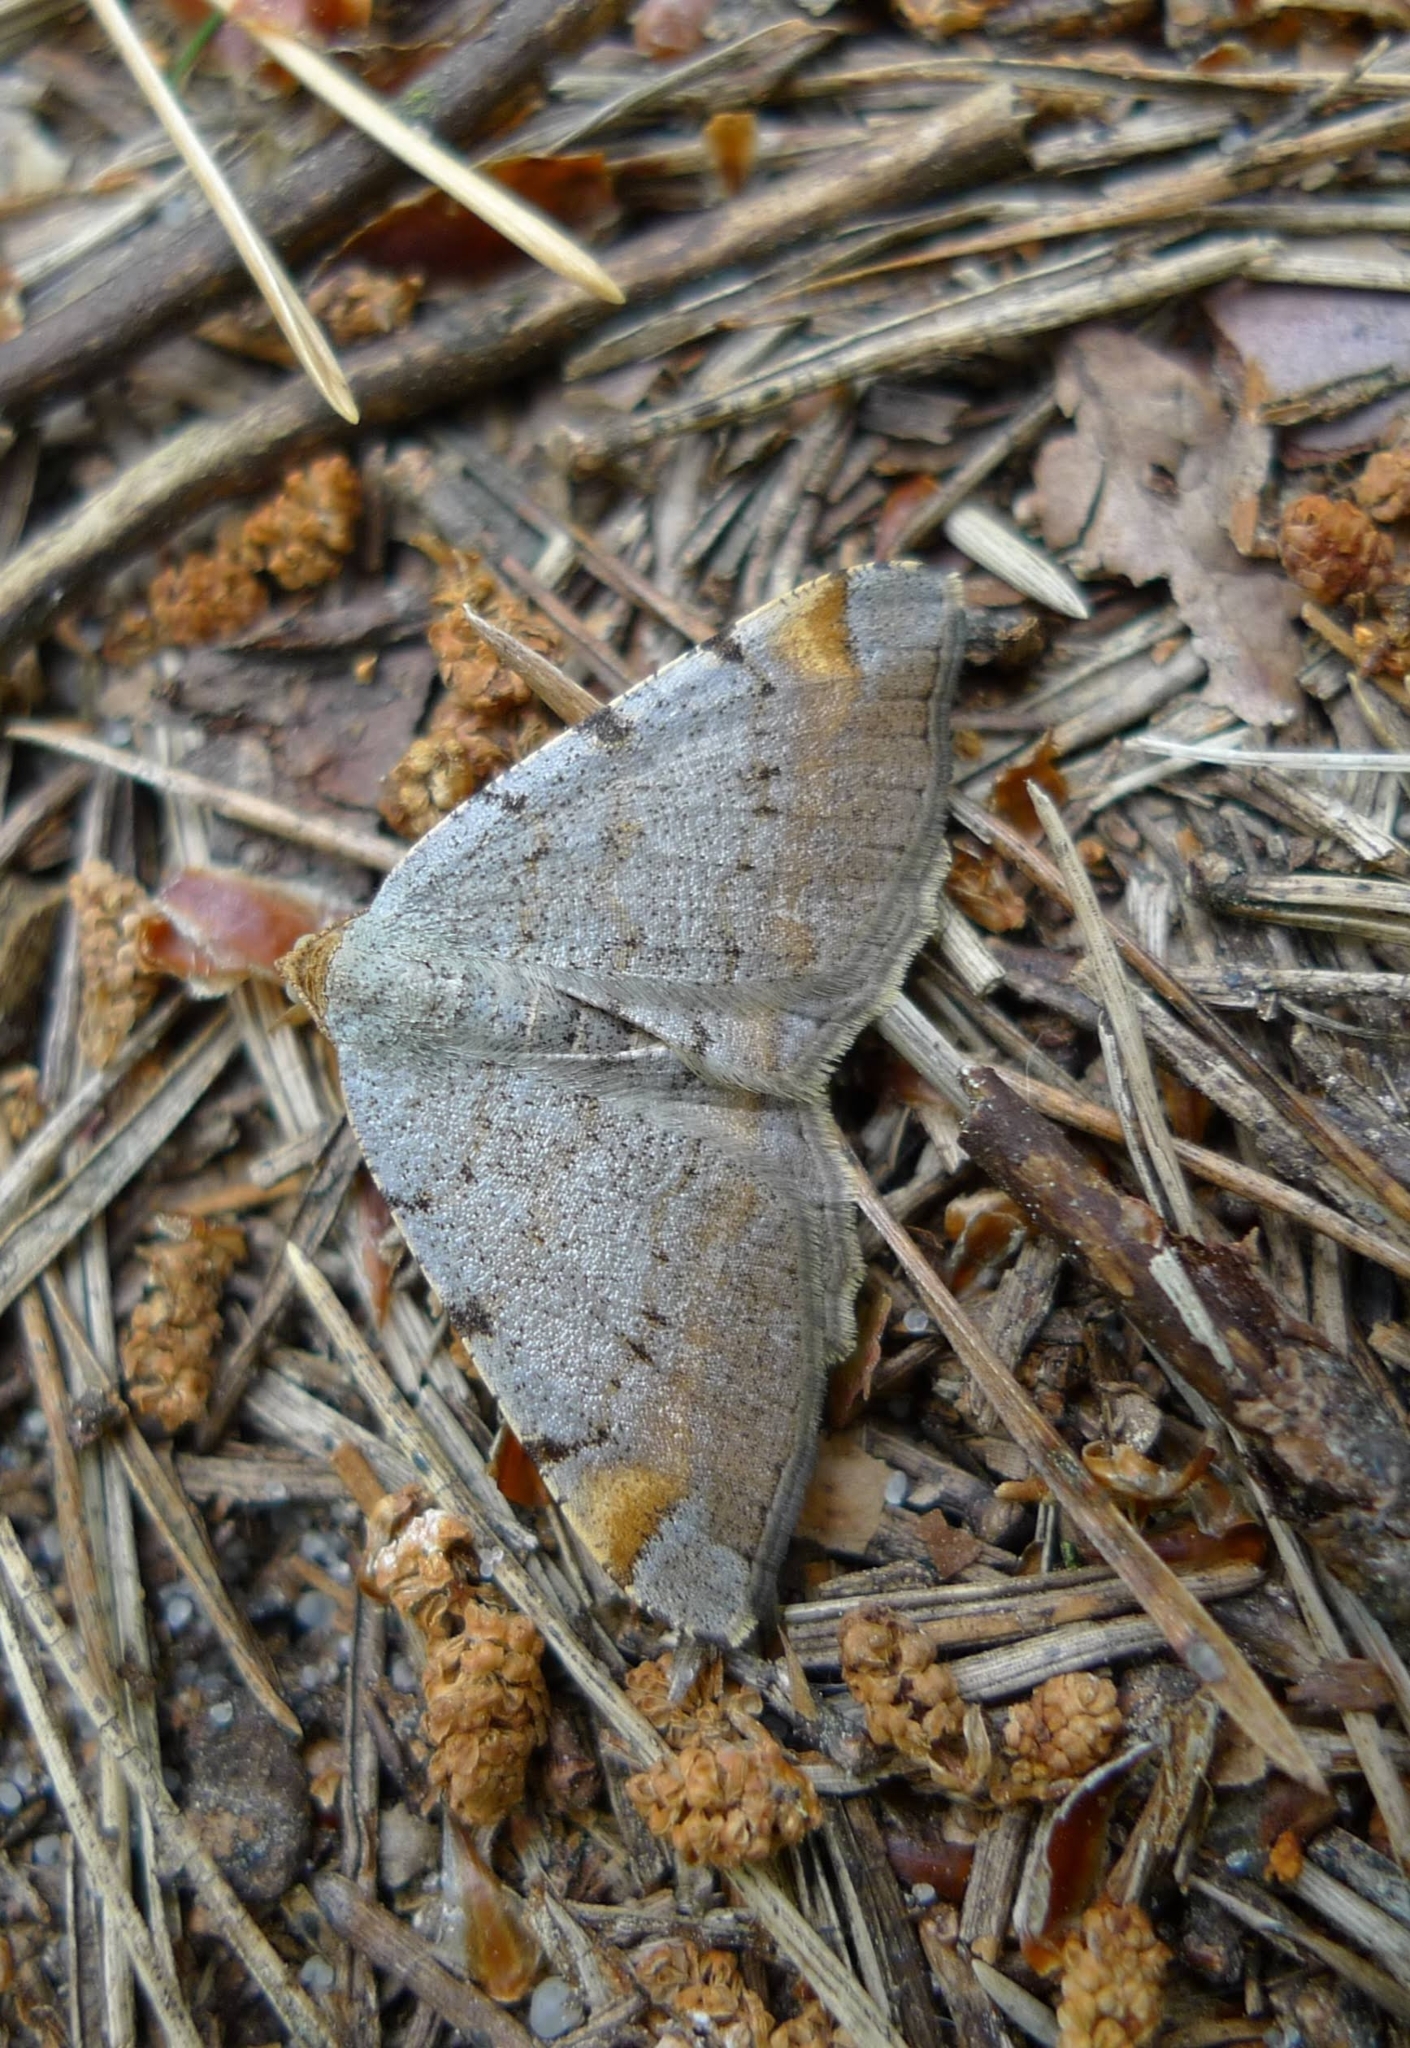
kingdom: Animalia
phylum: Arthropoda
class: Insecta
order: Lepidoptera
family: Geometridae
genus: Macaria
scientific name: Macaria liturata
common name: Tawny-barred angle
